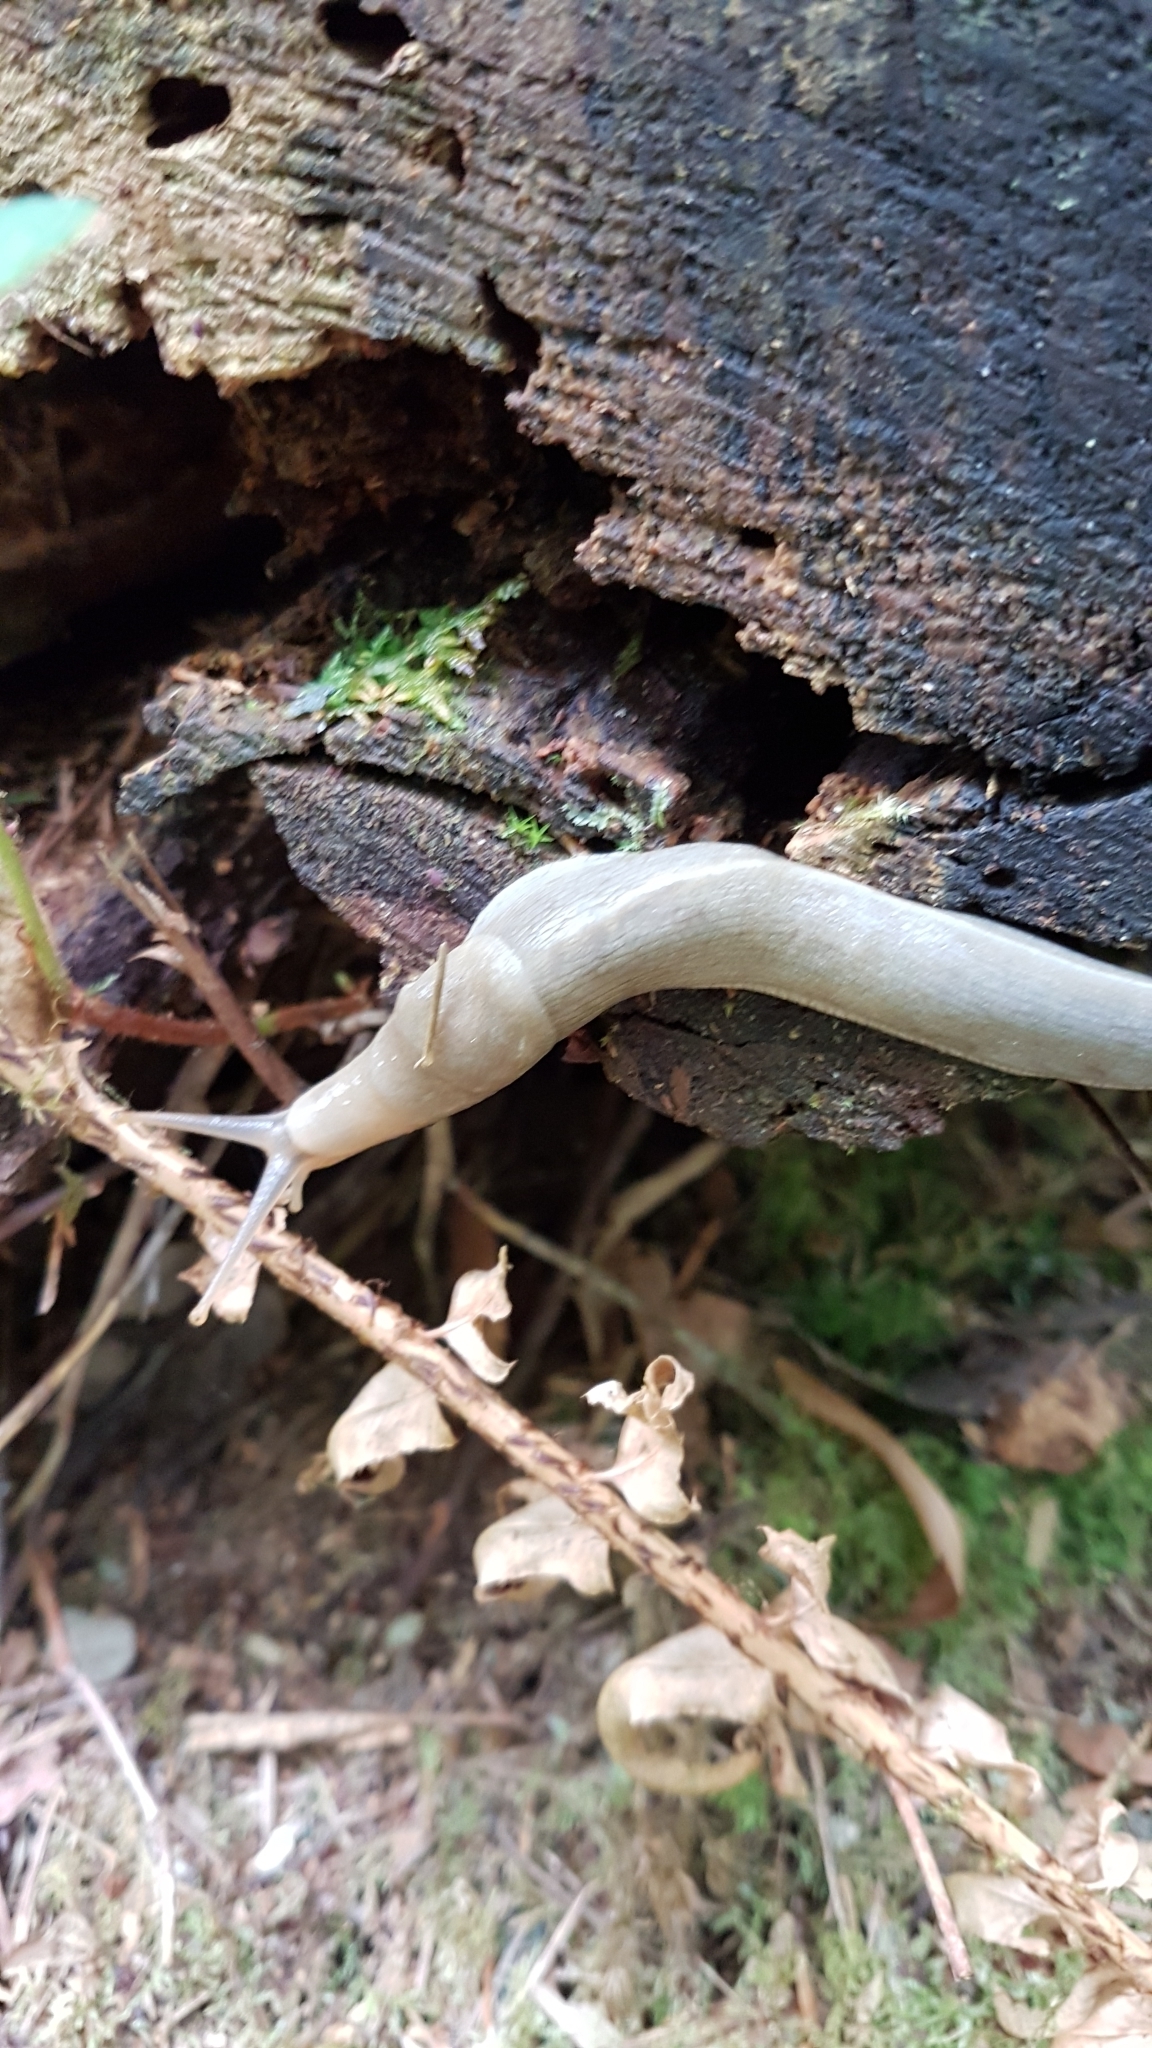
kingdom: Animalia
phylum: Mollusca
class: Gastropoda
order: Stylommatophora
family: Ariolimacidae
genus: Ariolimax
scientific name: Ariolimax columbianus
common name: Pacific banana slug
